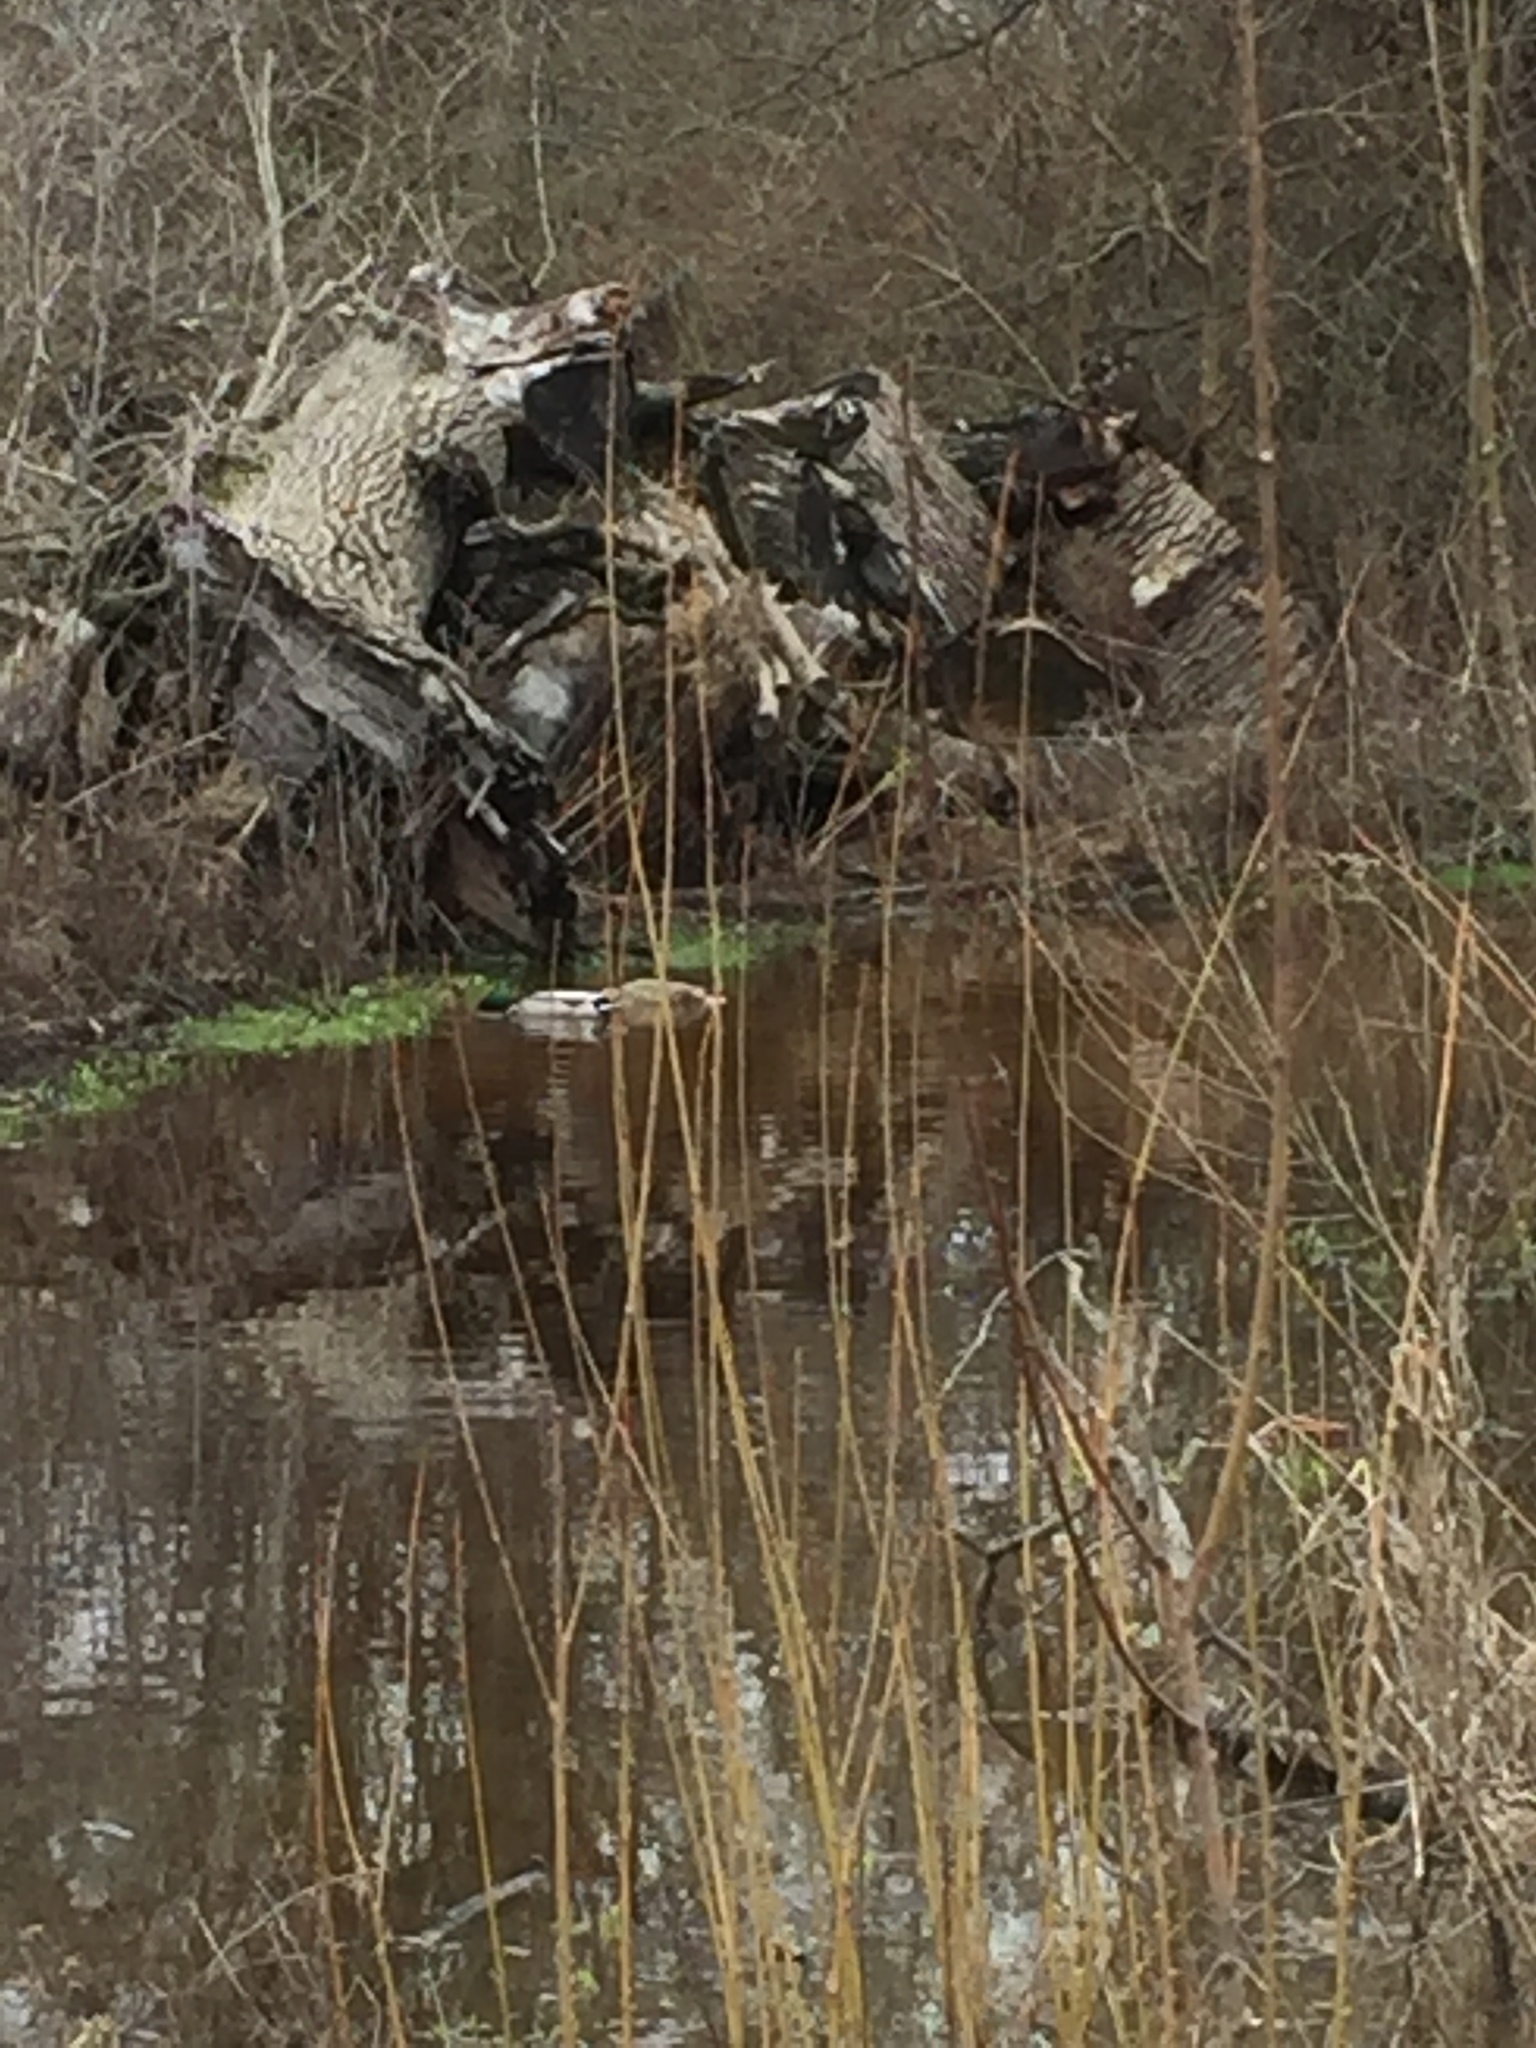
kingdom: Animalia
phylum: Chordata
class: Aves
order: Anseriformes
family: Anatidae
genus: Anas
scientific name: Anas platyrhynchos
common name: Mallard
